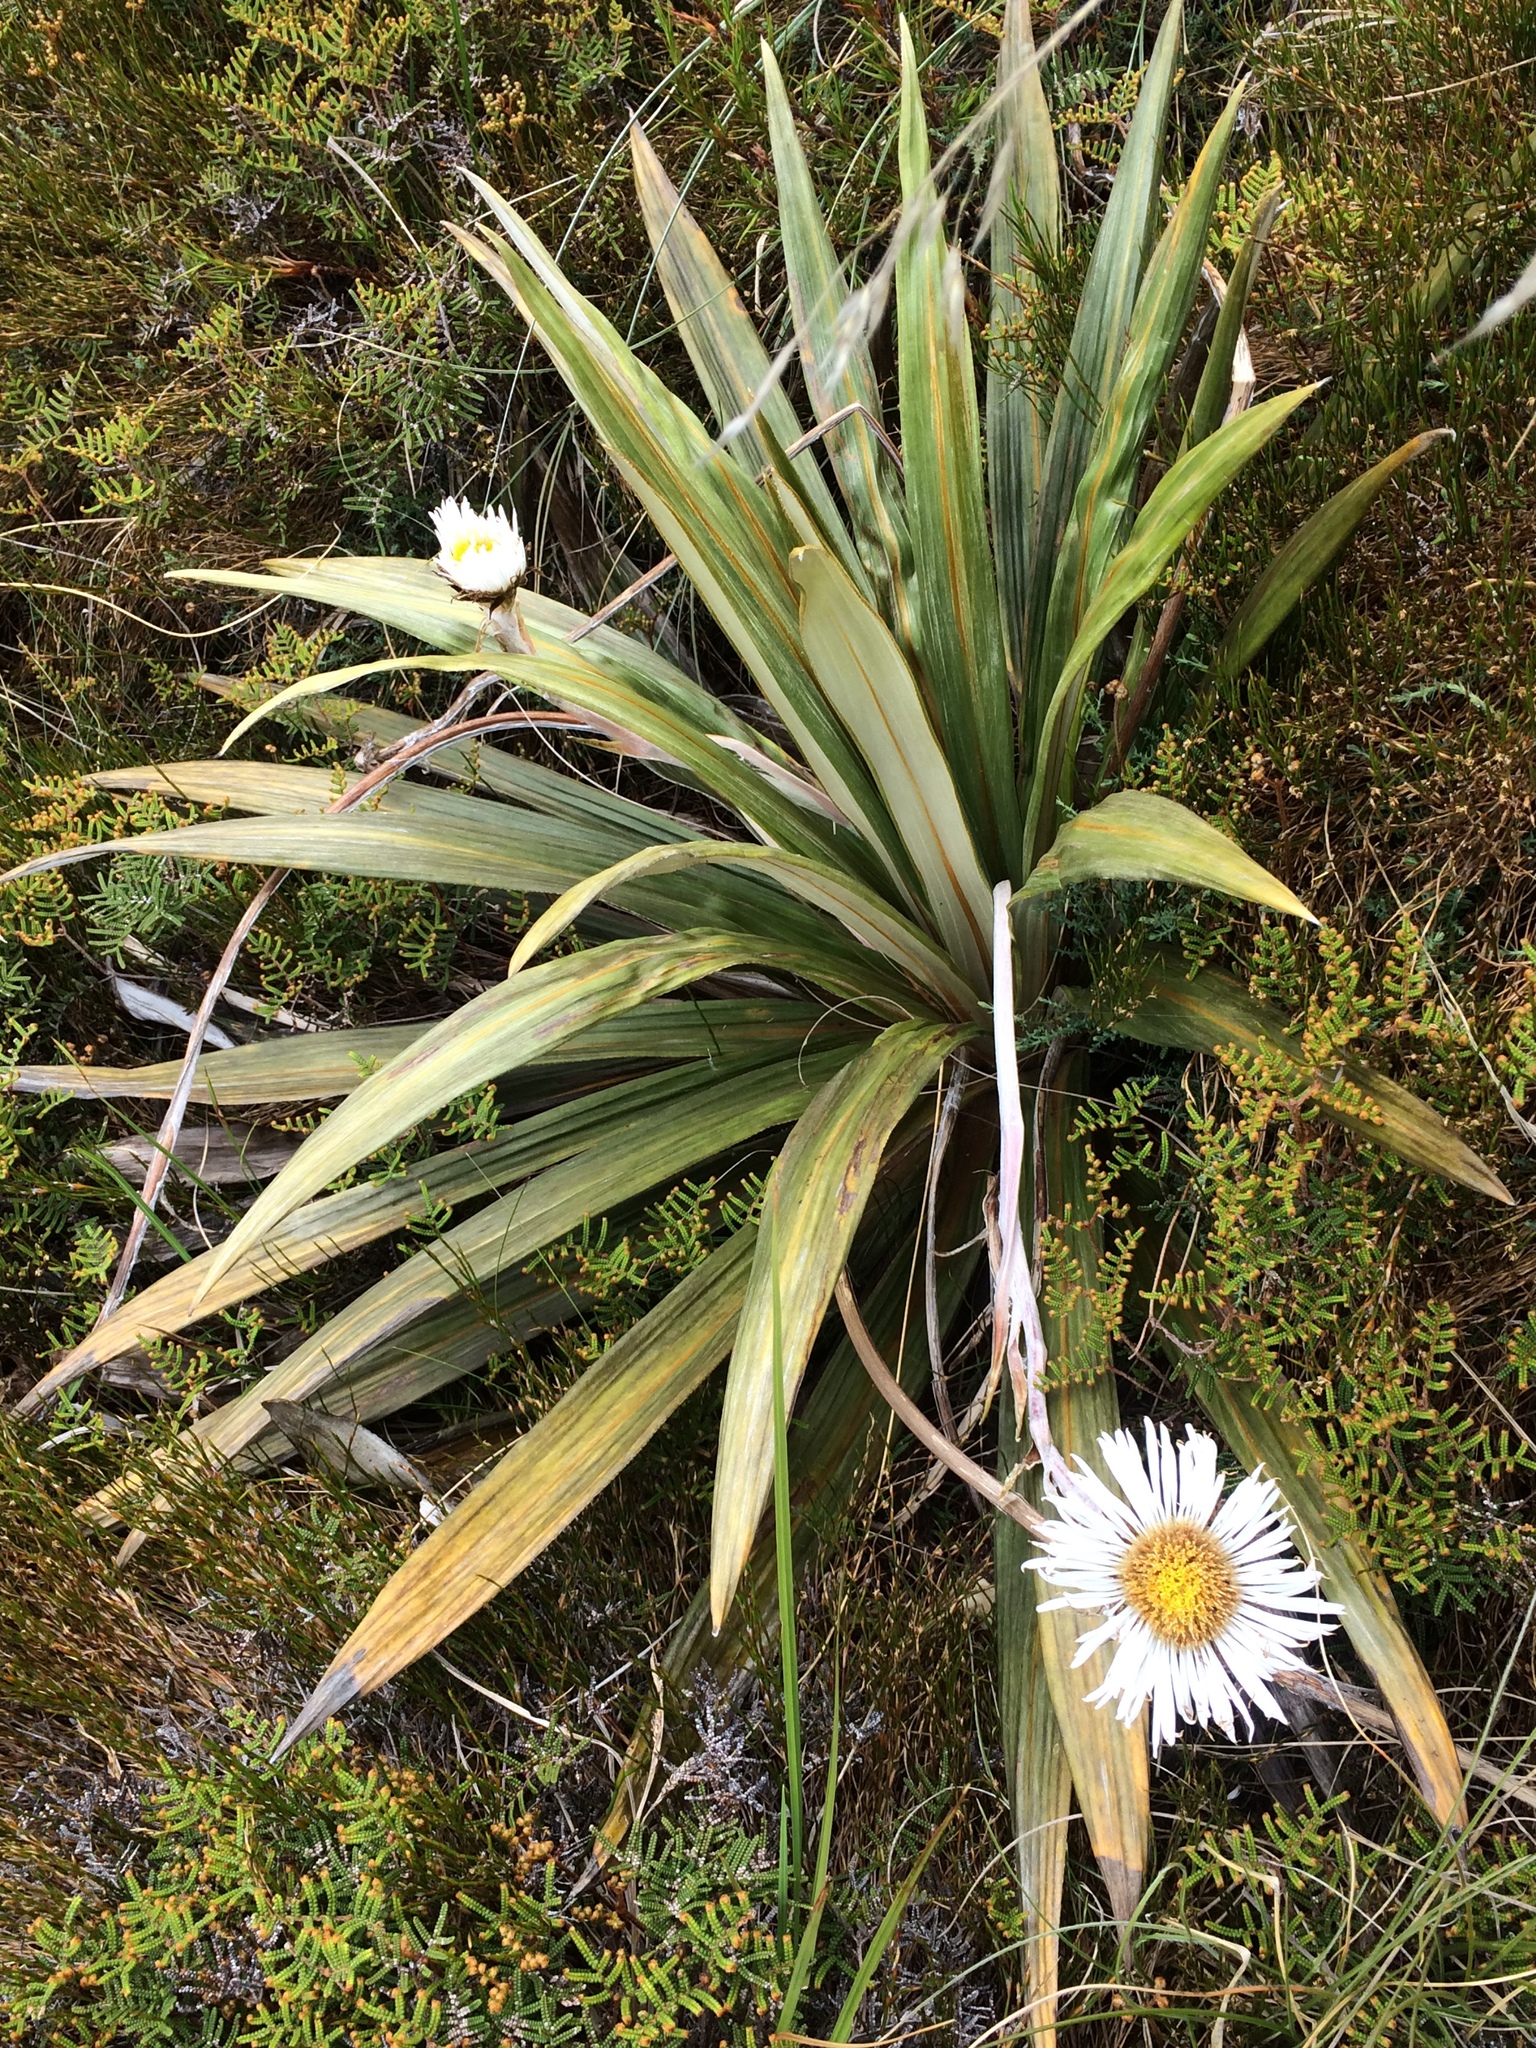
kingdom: Plantae
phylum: Tracheophyta
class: Magnoliopsida
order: Asterales
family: Asteraceae
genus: Celmisia
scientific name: Celmisia coriacea
